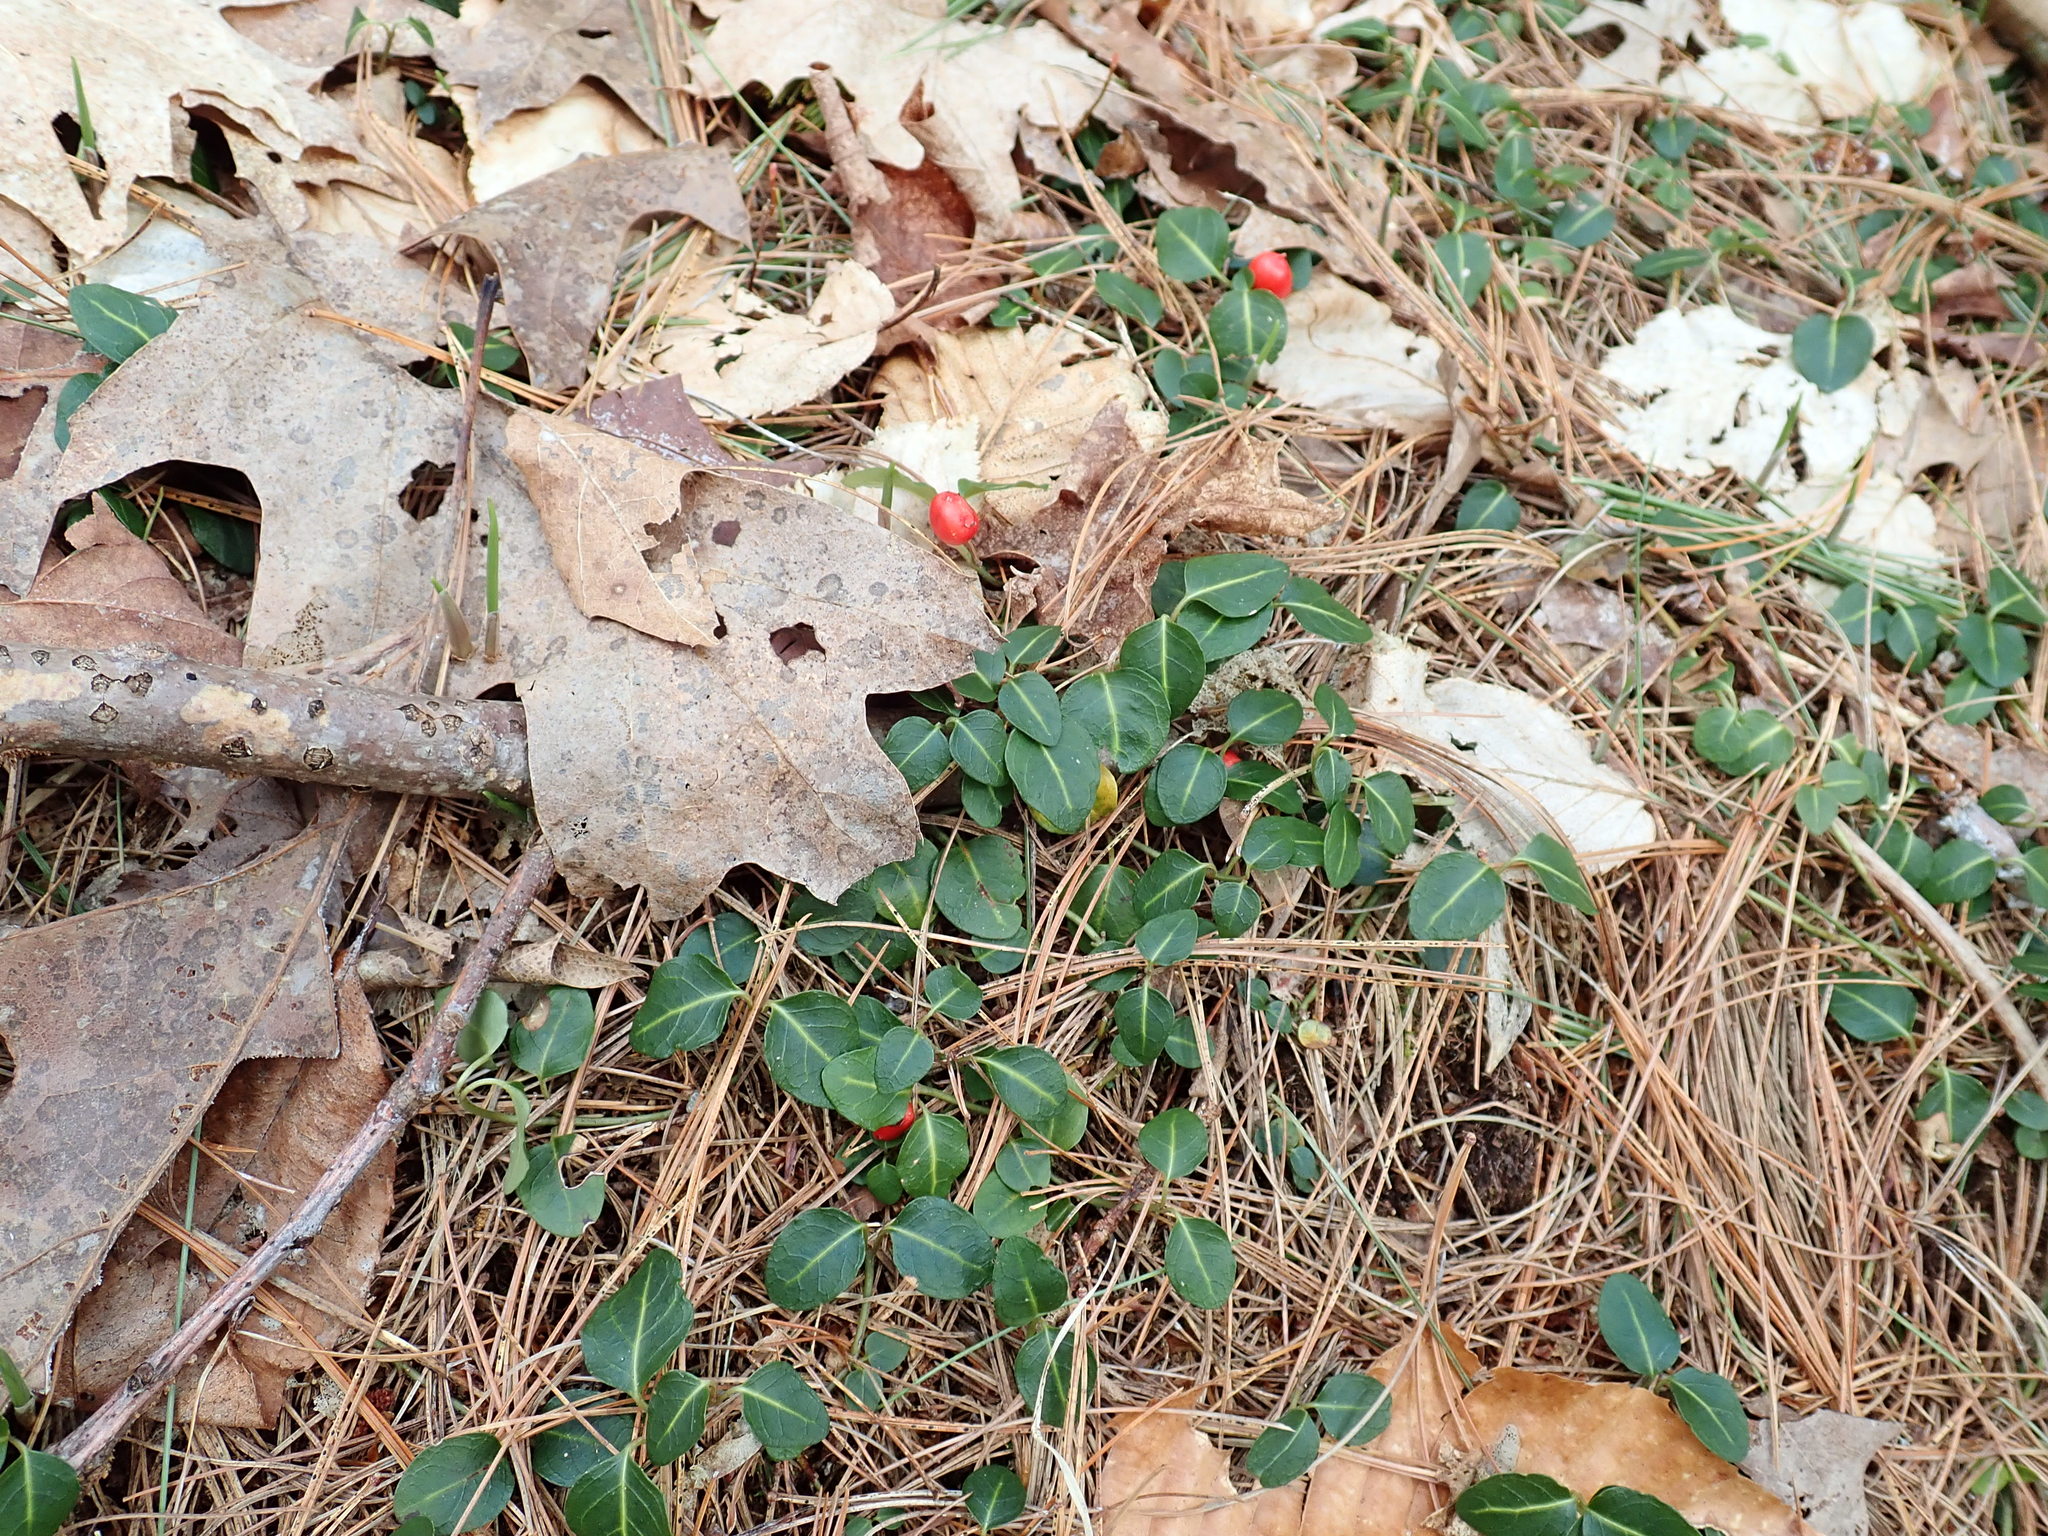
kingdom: Plantae
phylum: Tracheophyta
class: Magnoliopsida
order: Gentianales
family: Rubiaceae
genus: Mitchella
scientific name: Mitchella repens
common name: Partridge-berry
